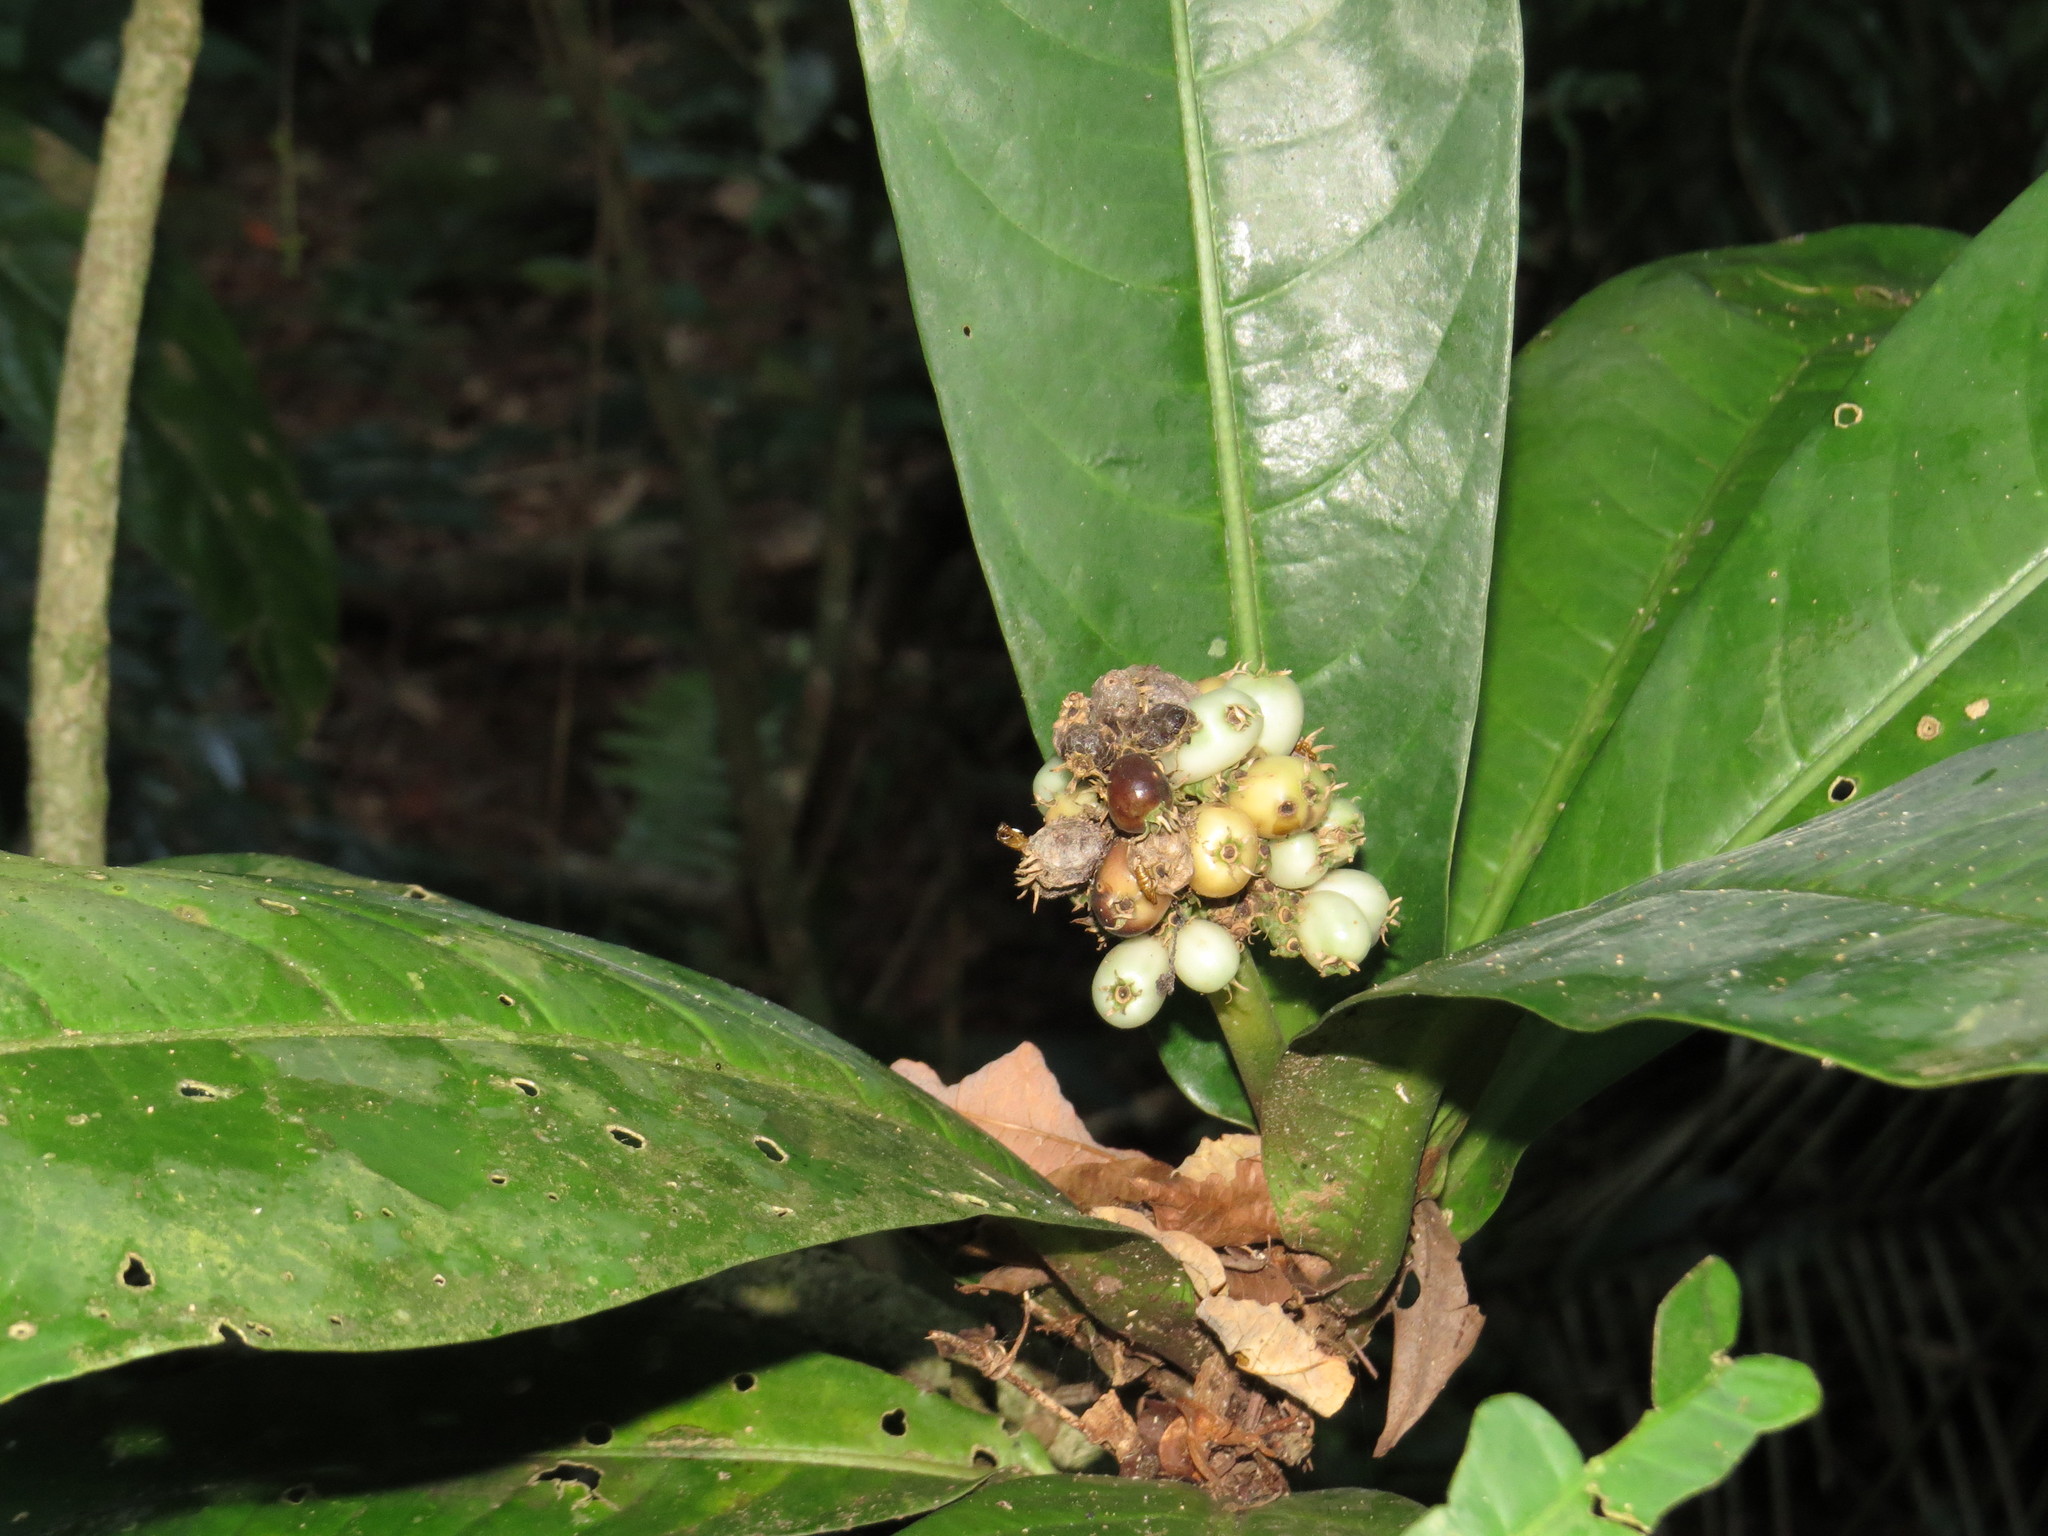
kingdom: Plantae
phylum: Tracheophyta
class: Magnoliopsida
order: Gentianales
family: Rubiaceae
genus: Rudgea
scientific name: Rudgea macrophylla
